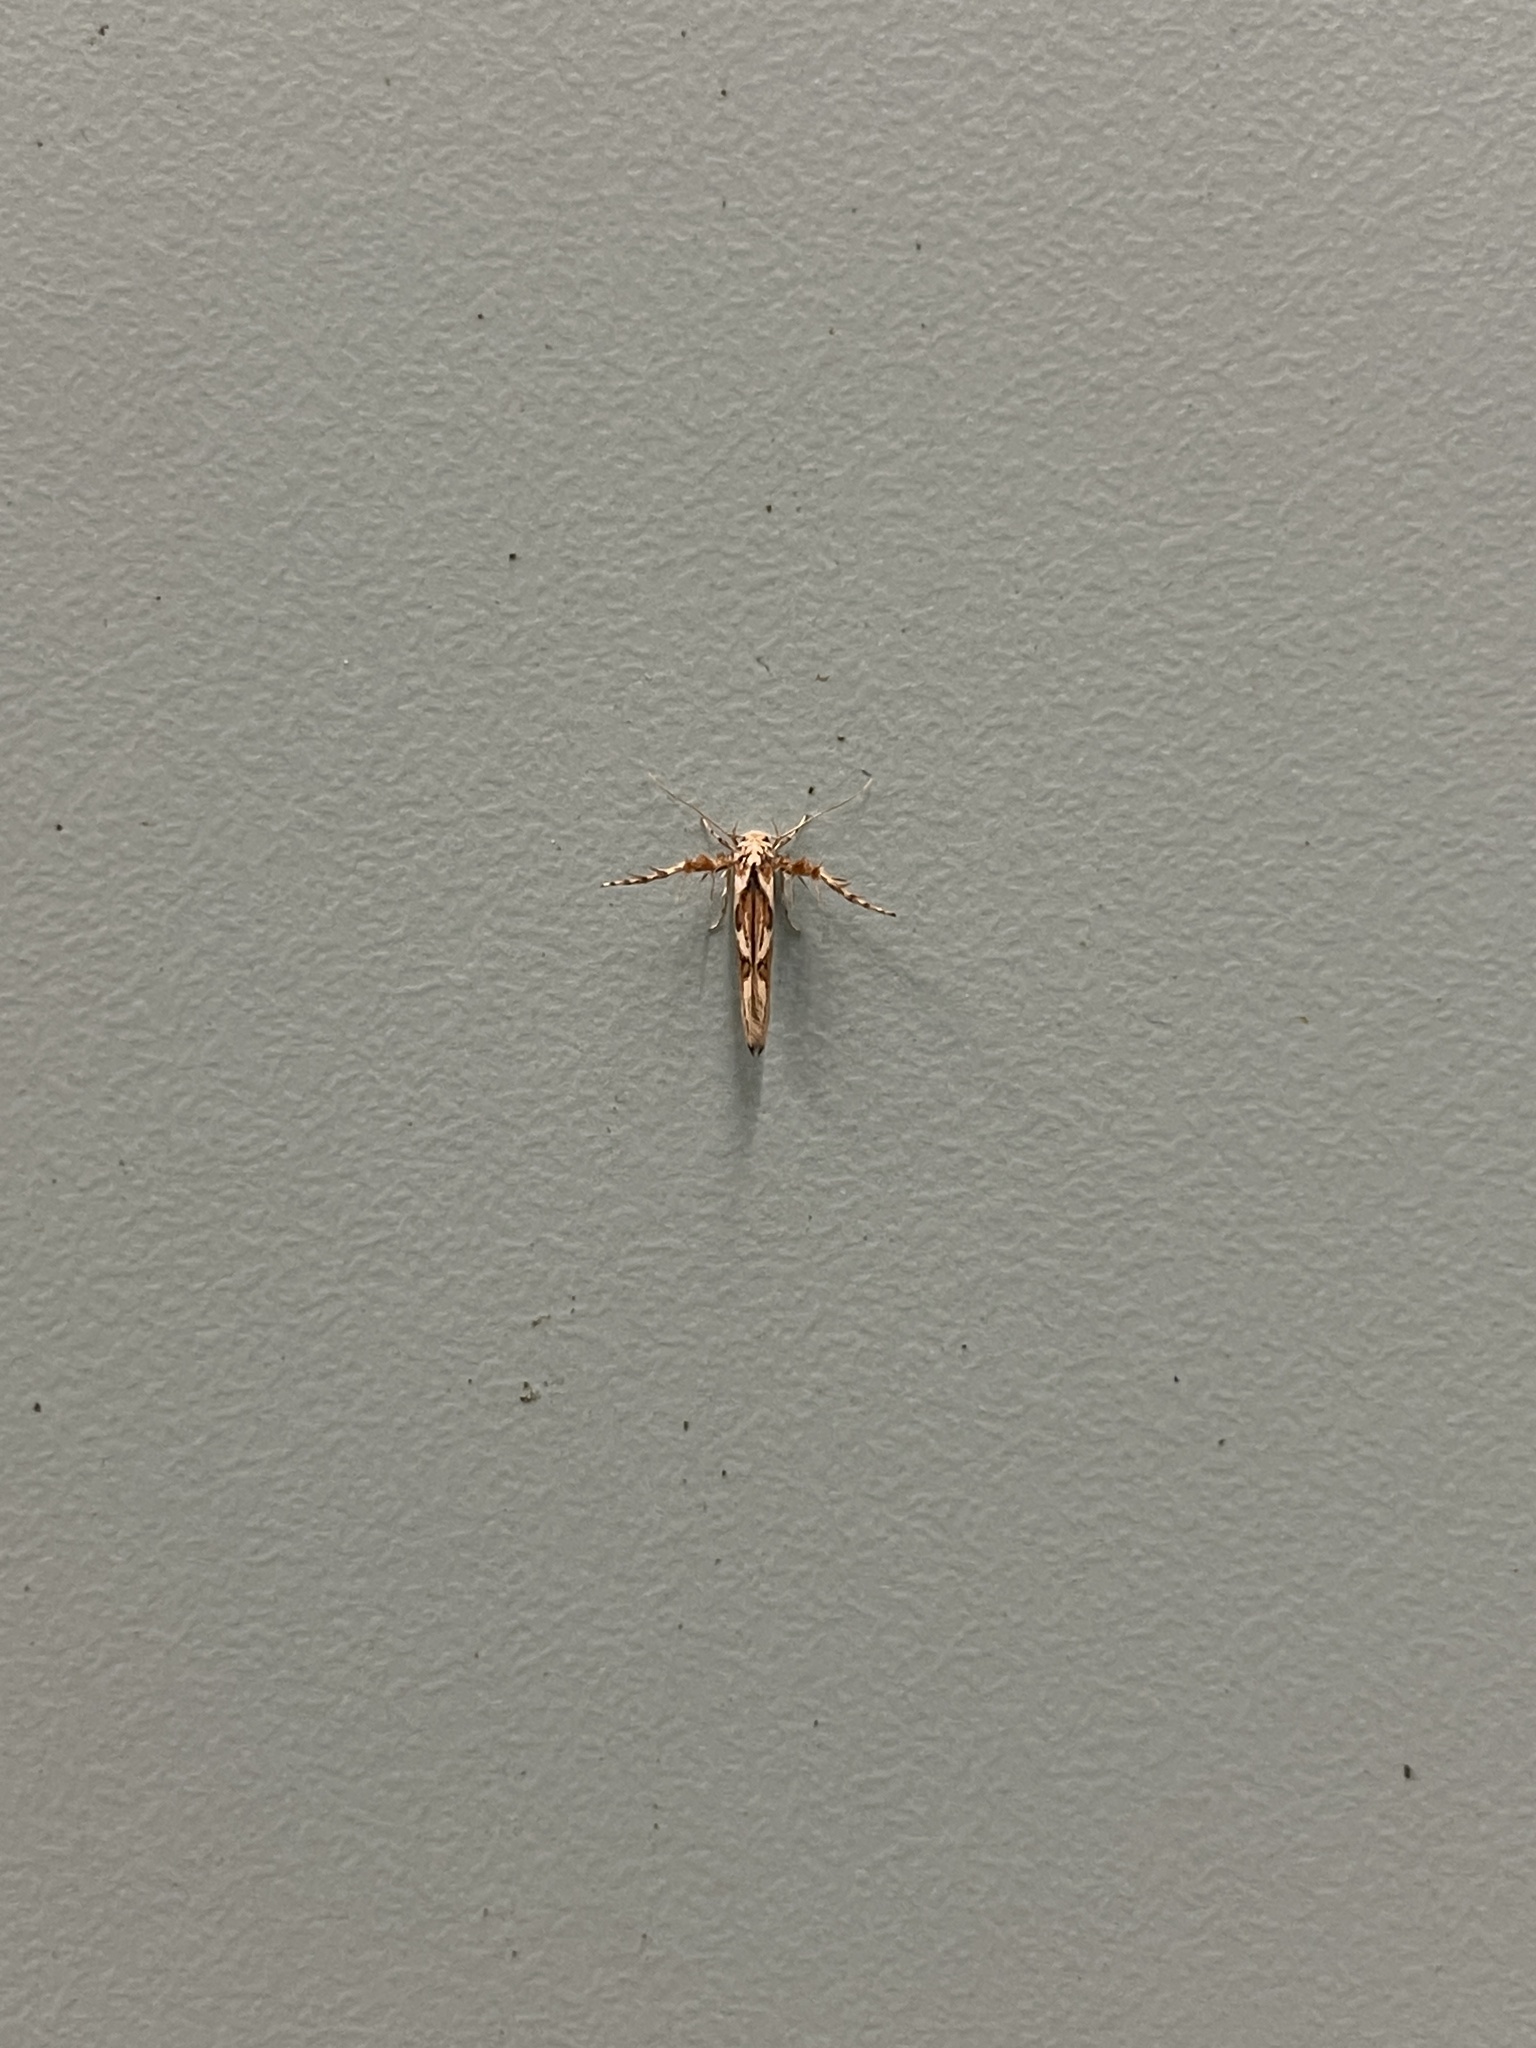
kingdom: Animalia
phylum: Arthropoda
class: Insecta
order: Lepidoptera
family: Stathmopodidae
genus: Stathmopoda
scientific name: Stathmopoda stimulata
